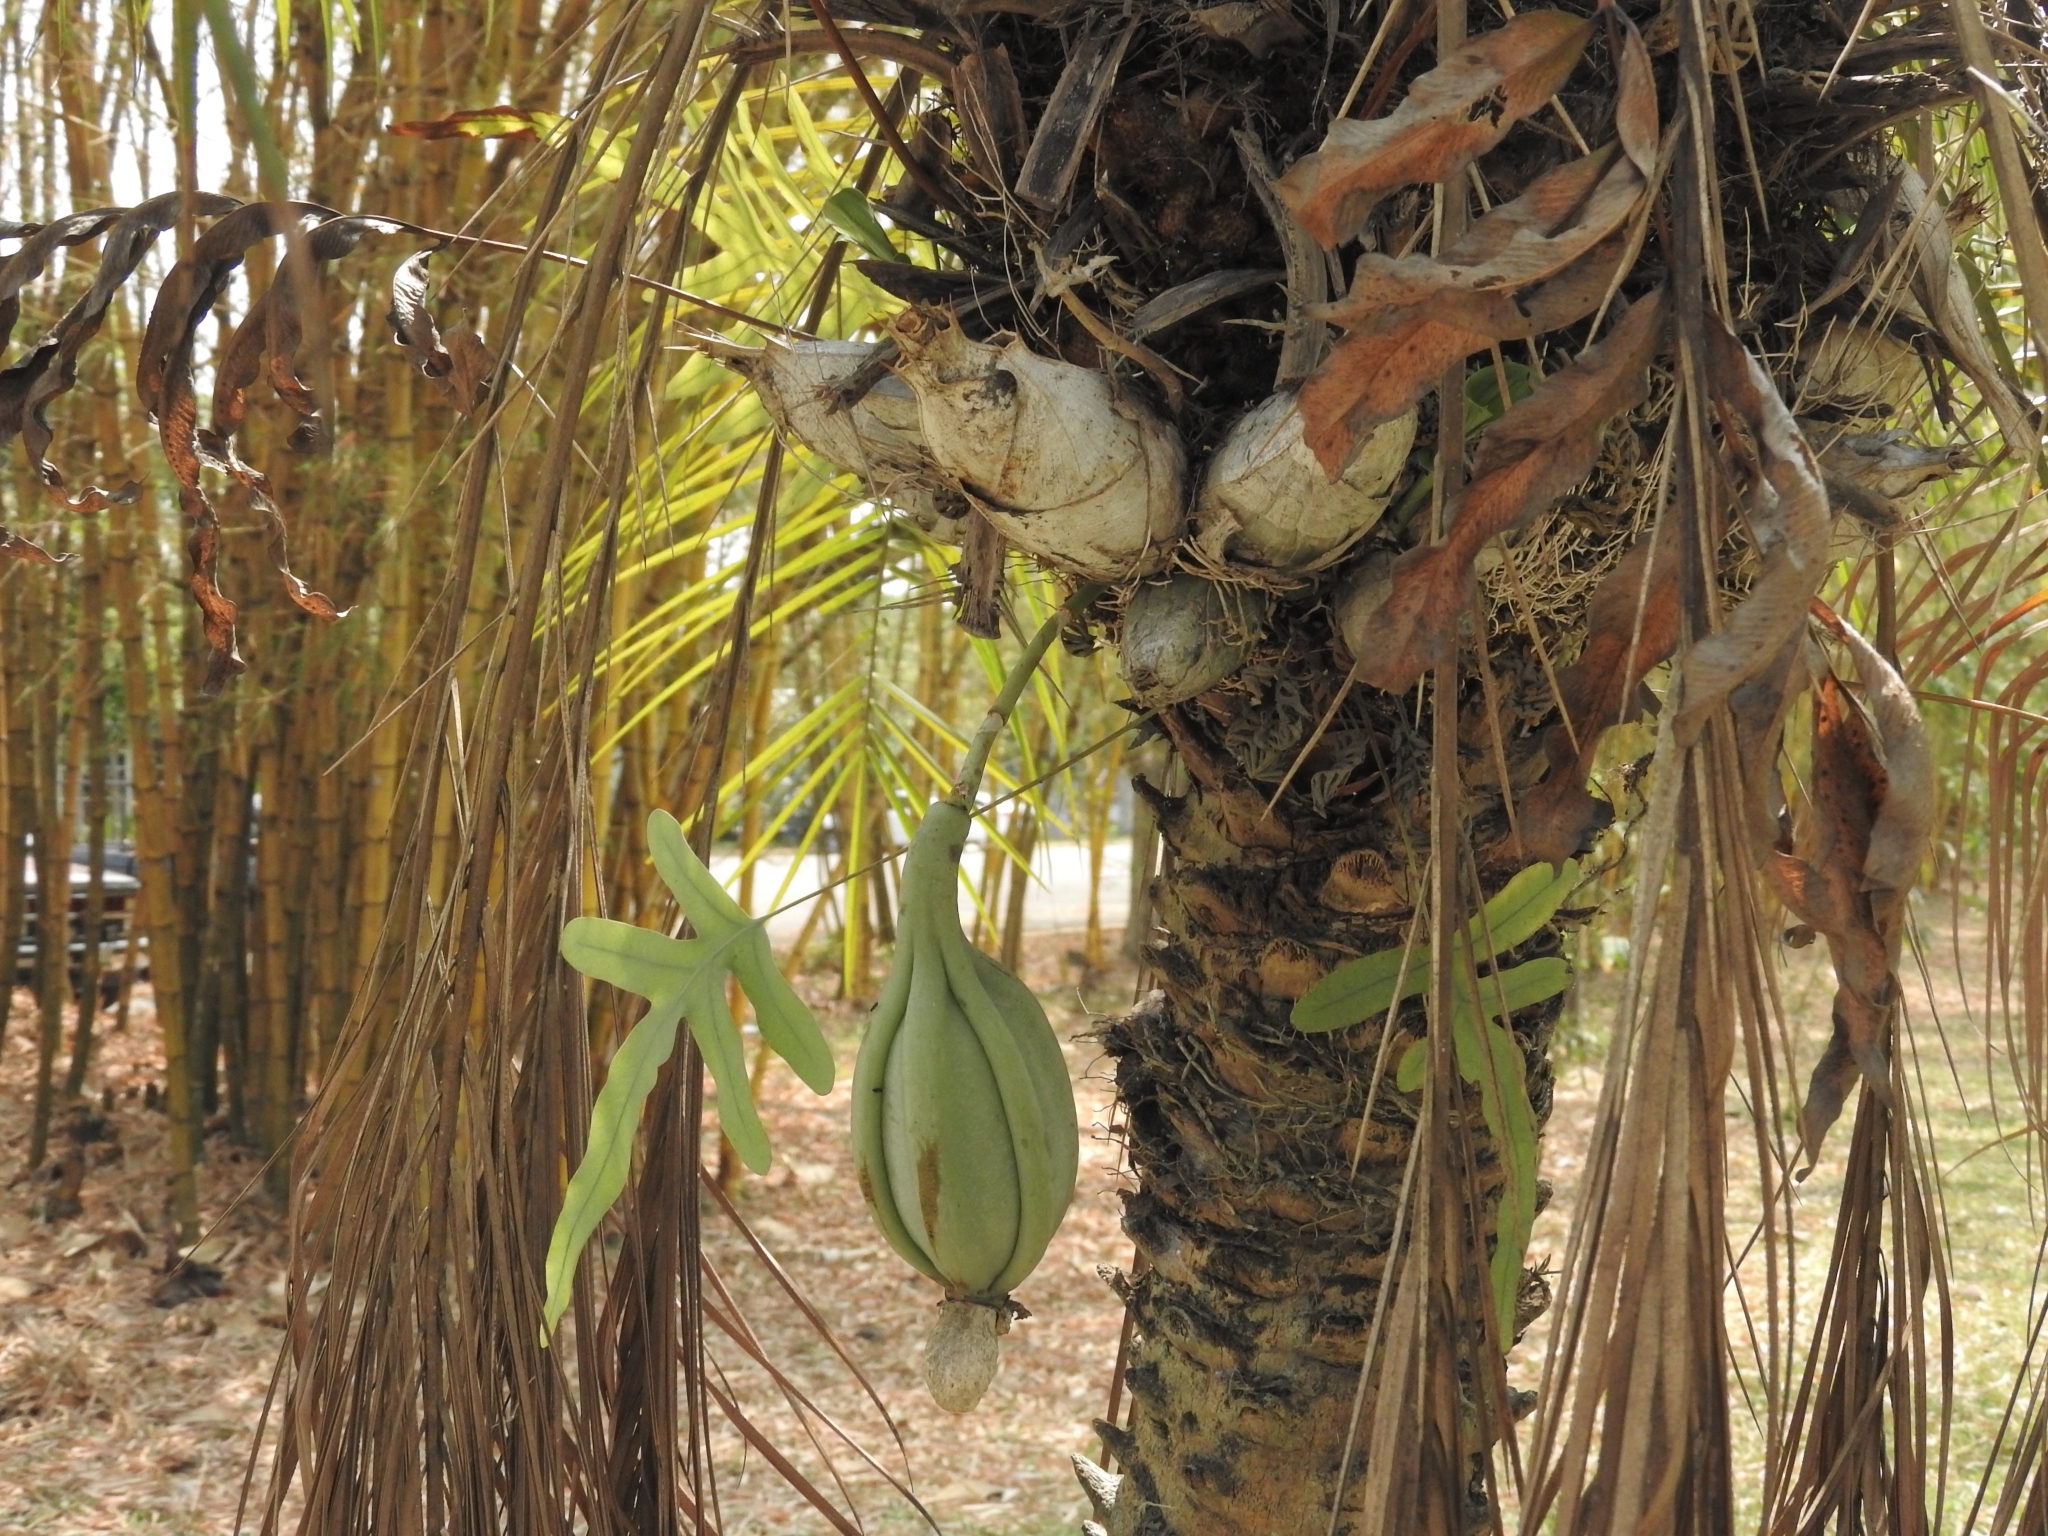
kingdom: Plantae
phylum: Tracheophyta
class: Liliopsida
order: Asparagales
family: Orchidaceae
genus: Catasetum
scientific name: Catasetum integerrimum
